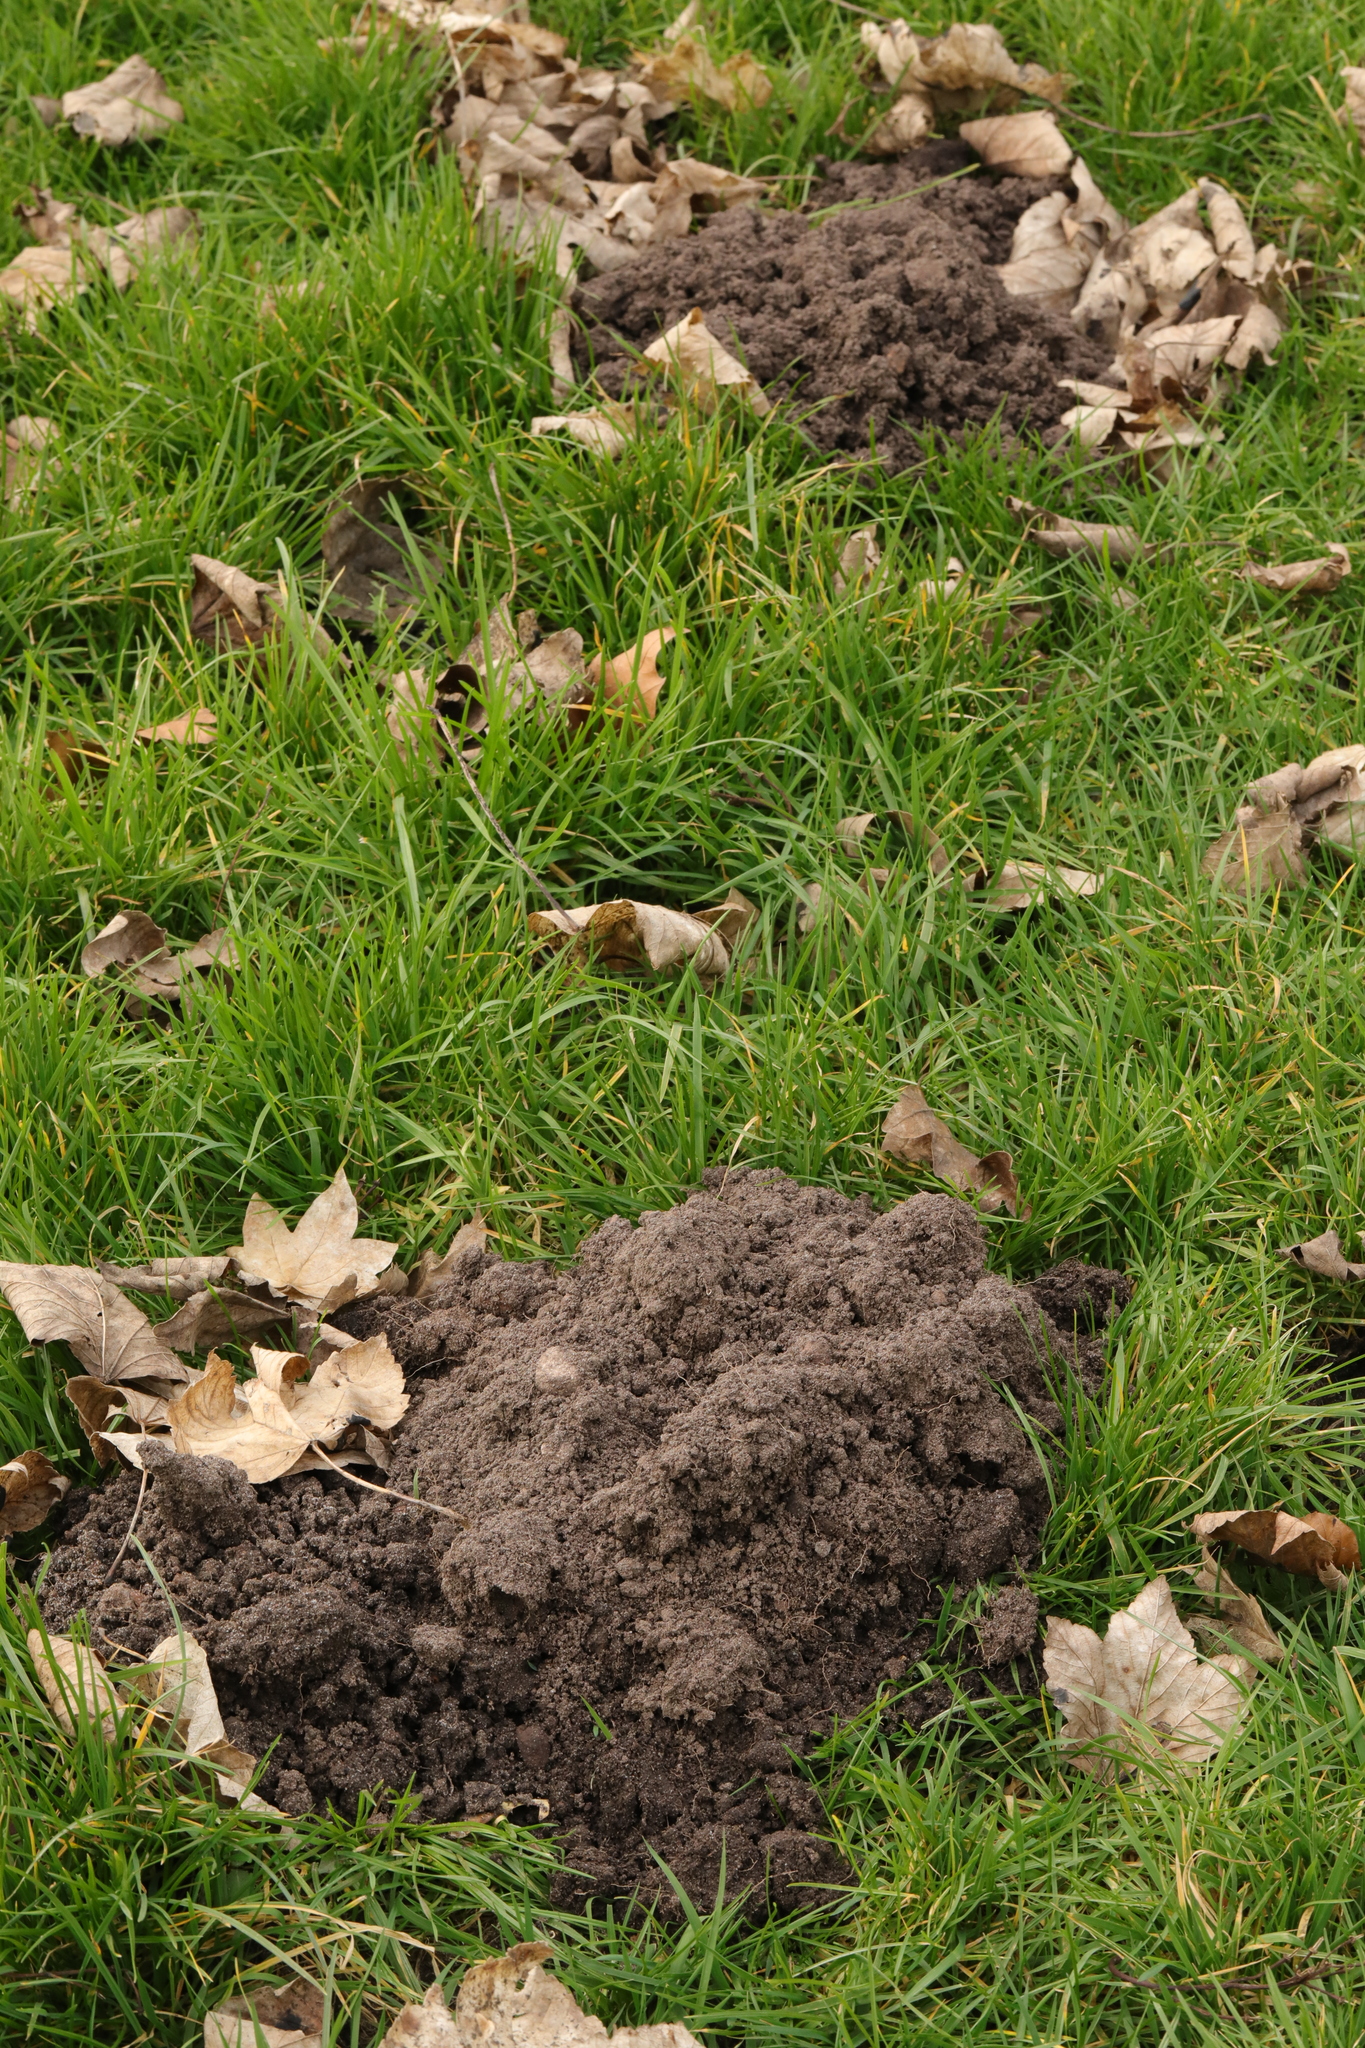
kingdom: Animalia
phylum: Chordata
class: Mammalia
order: Soricomorpha
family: Talpidae
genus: Talpa
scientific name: Talpa europaea
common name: European mole
